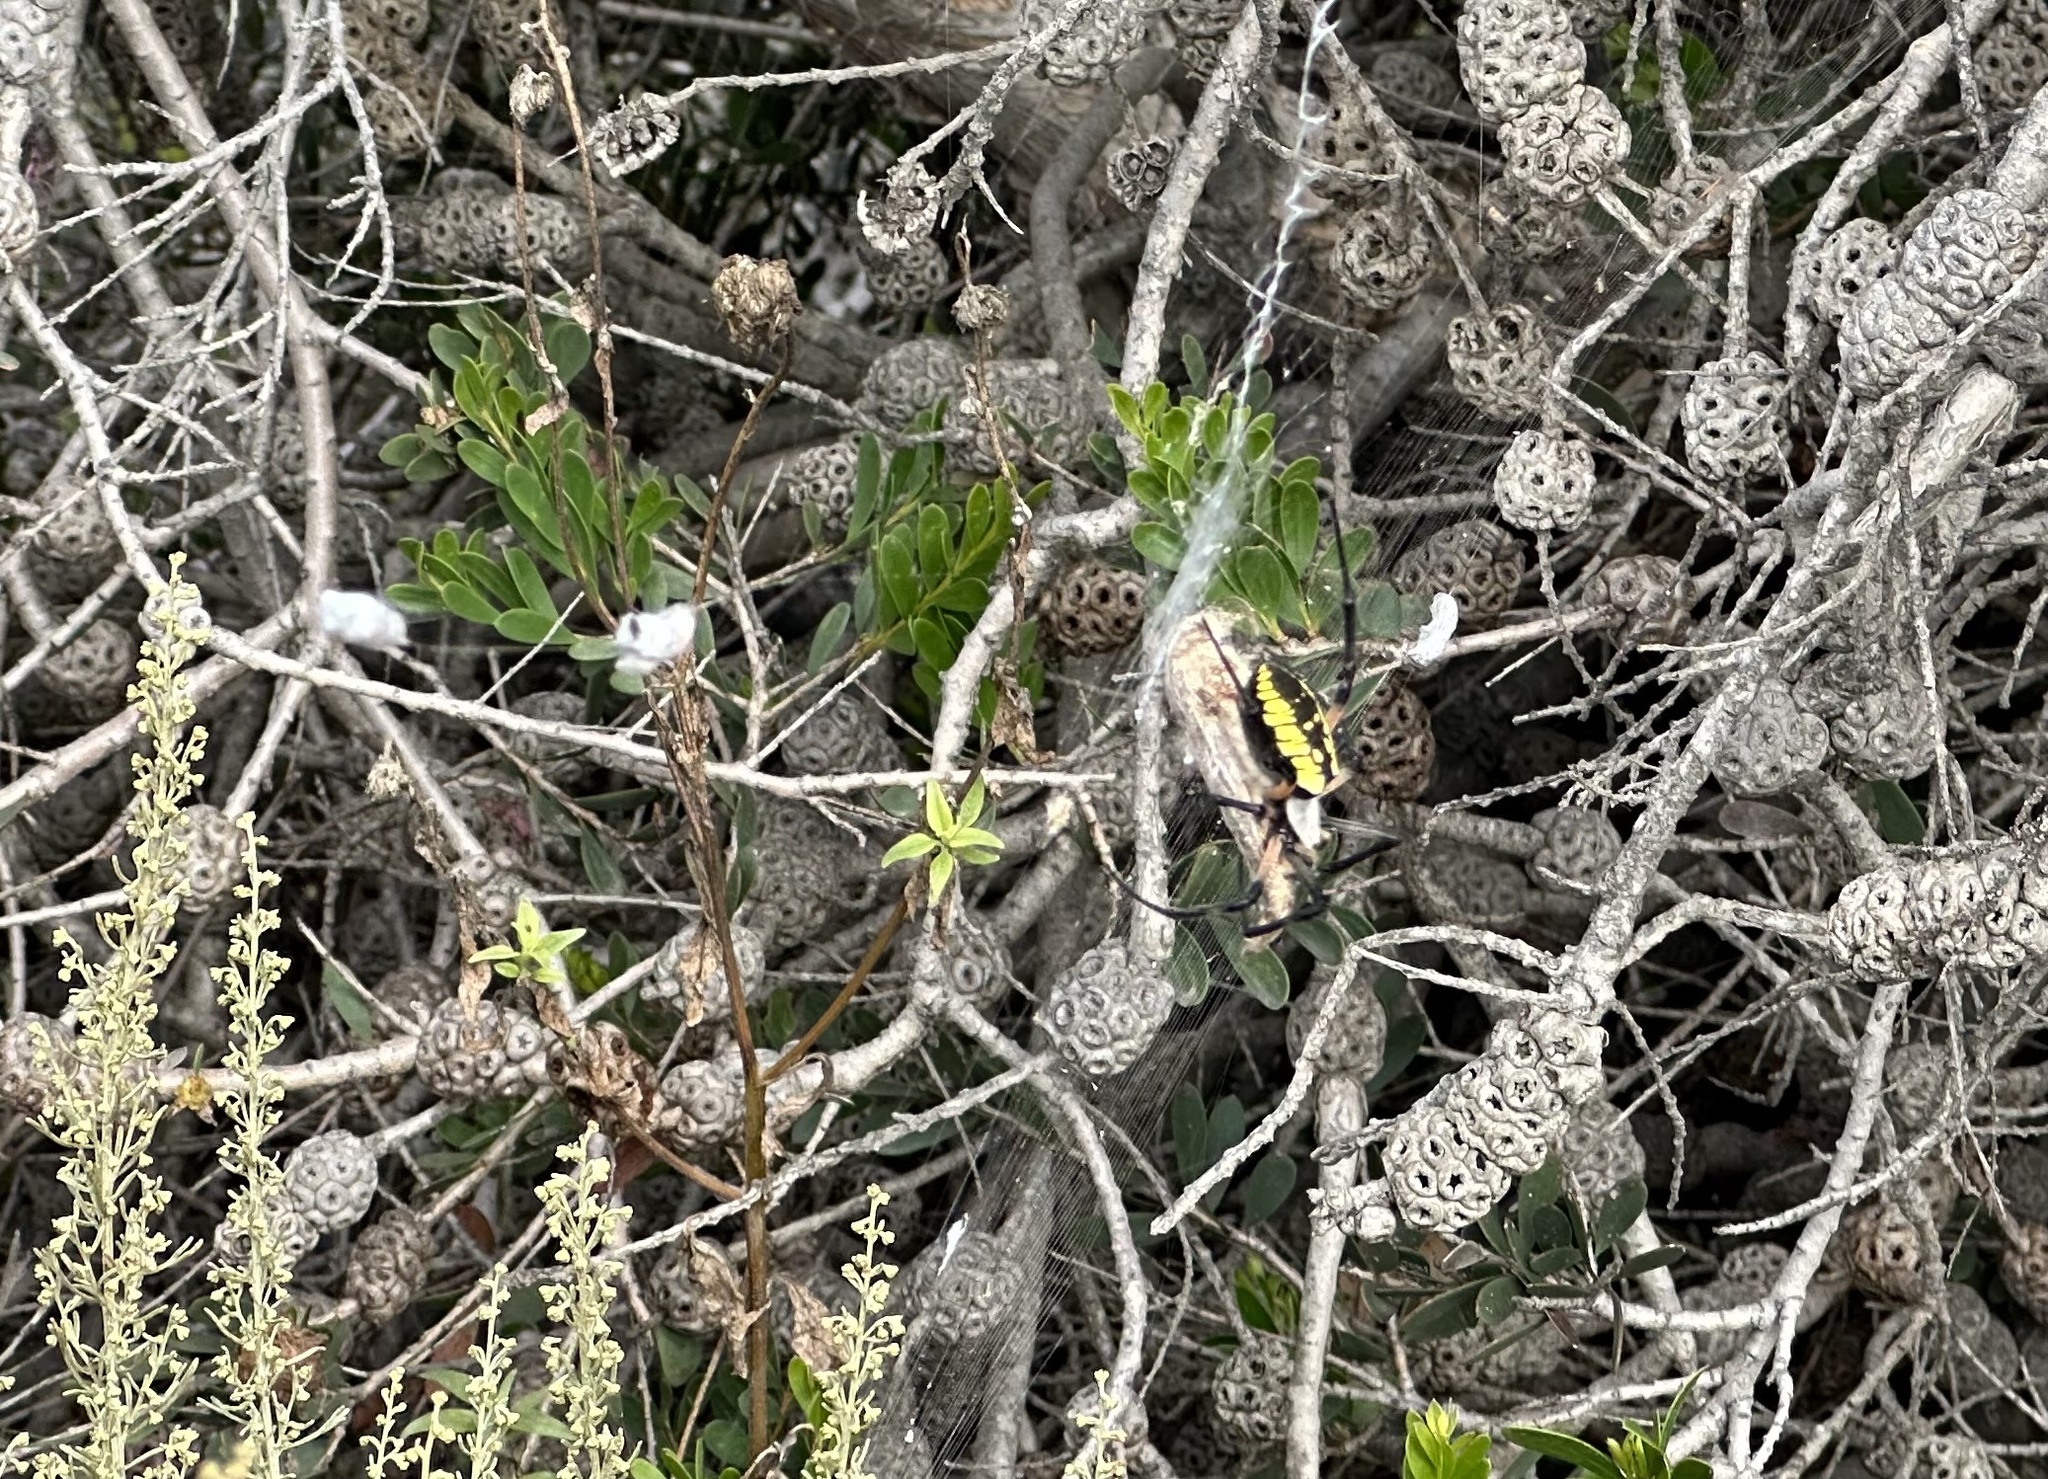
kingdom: Animalia
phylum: Arthropoda
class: Arachnida
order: Araneae
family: Araneidae
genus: Argiope
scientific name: Argiope aurantia
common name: Orb weavers
